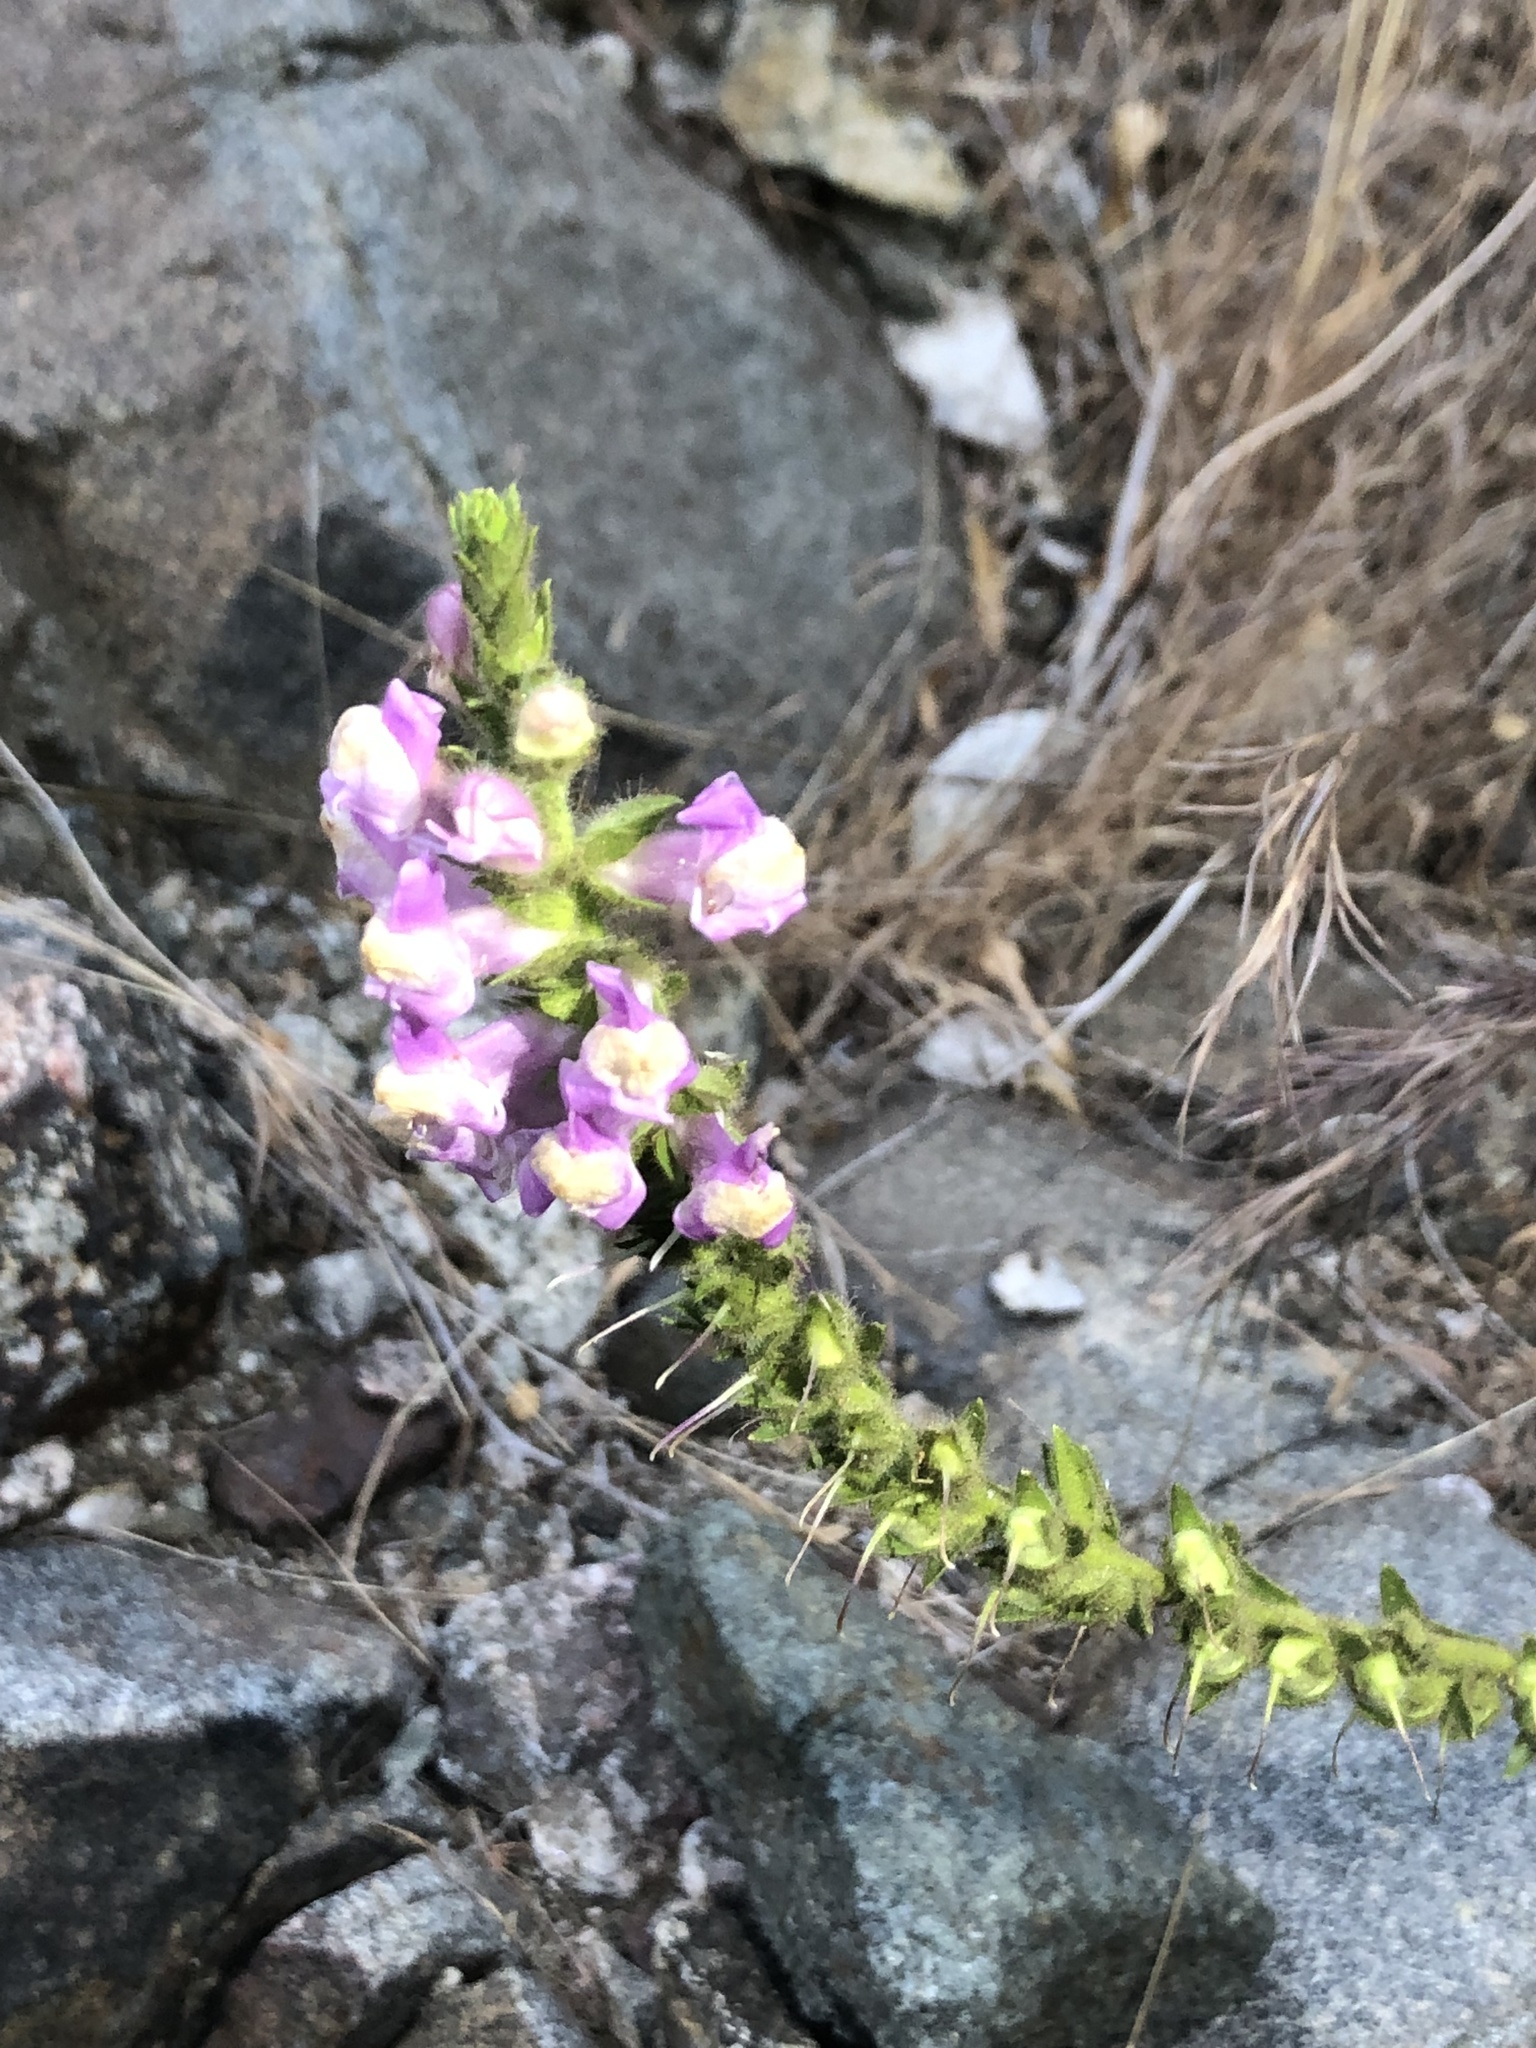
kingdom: Plantae
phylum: Tracheophyta
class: Magnoliopsida
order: Lamiales
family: Plantaginaceae
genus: Sairocarpus
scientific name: Sairocarpus multiflorus
